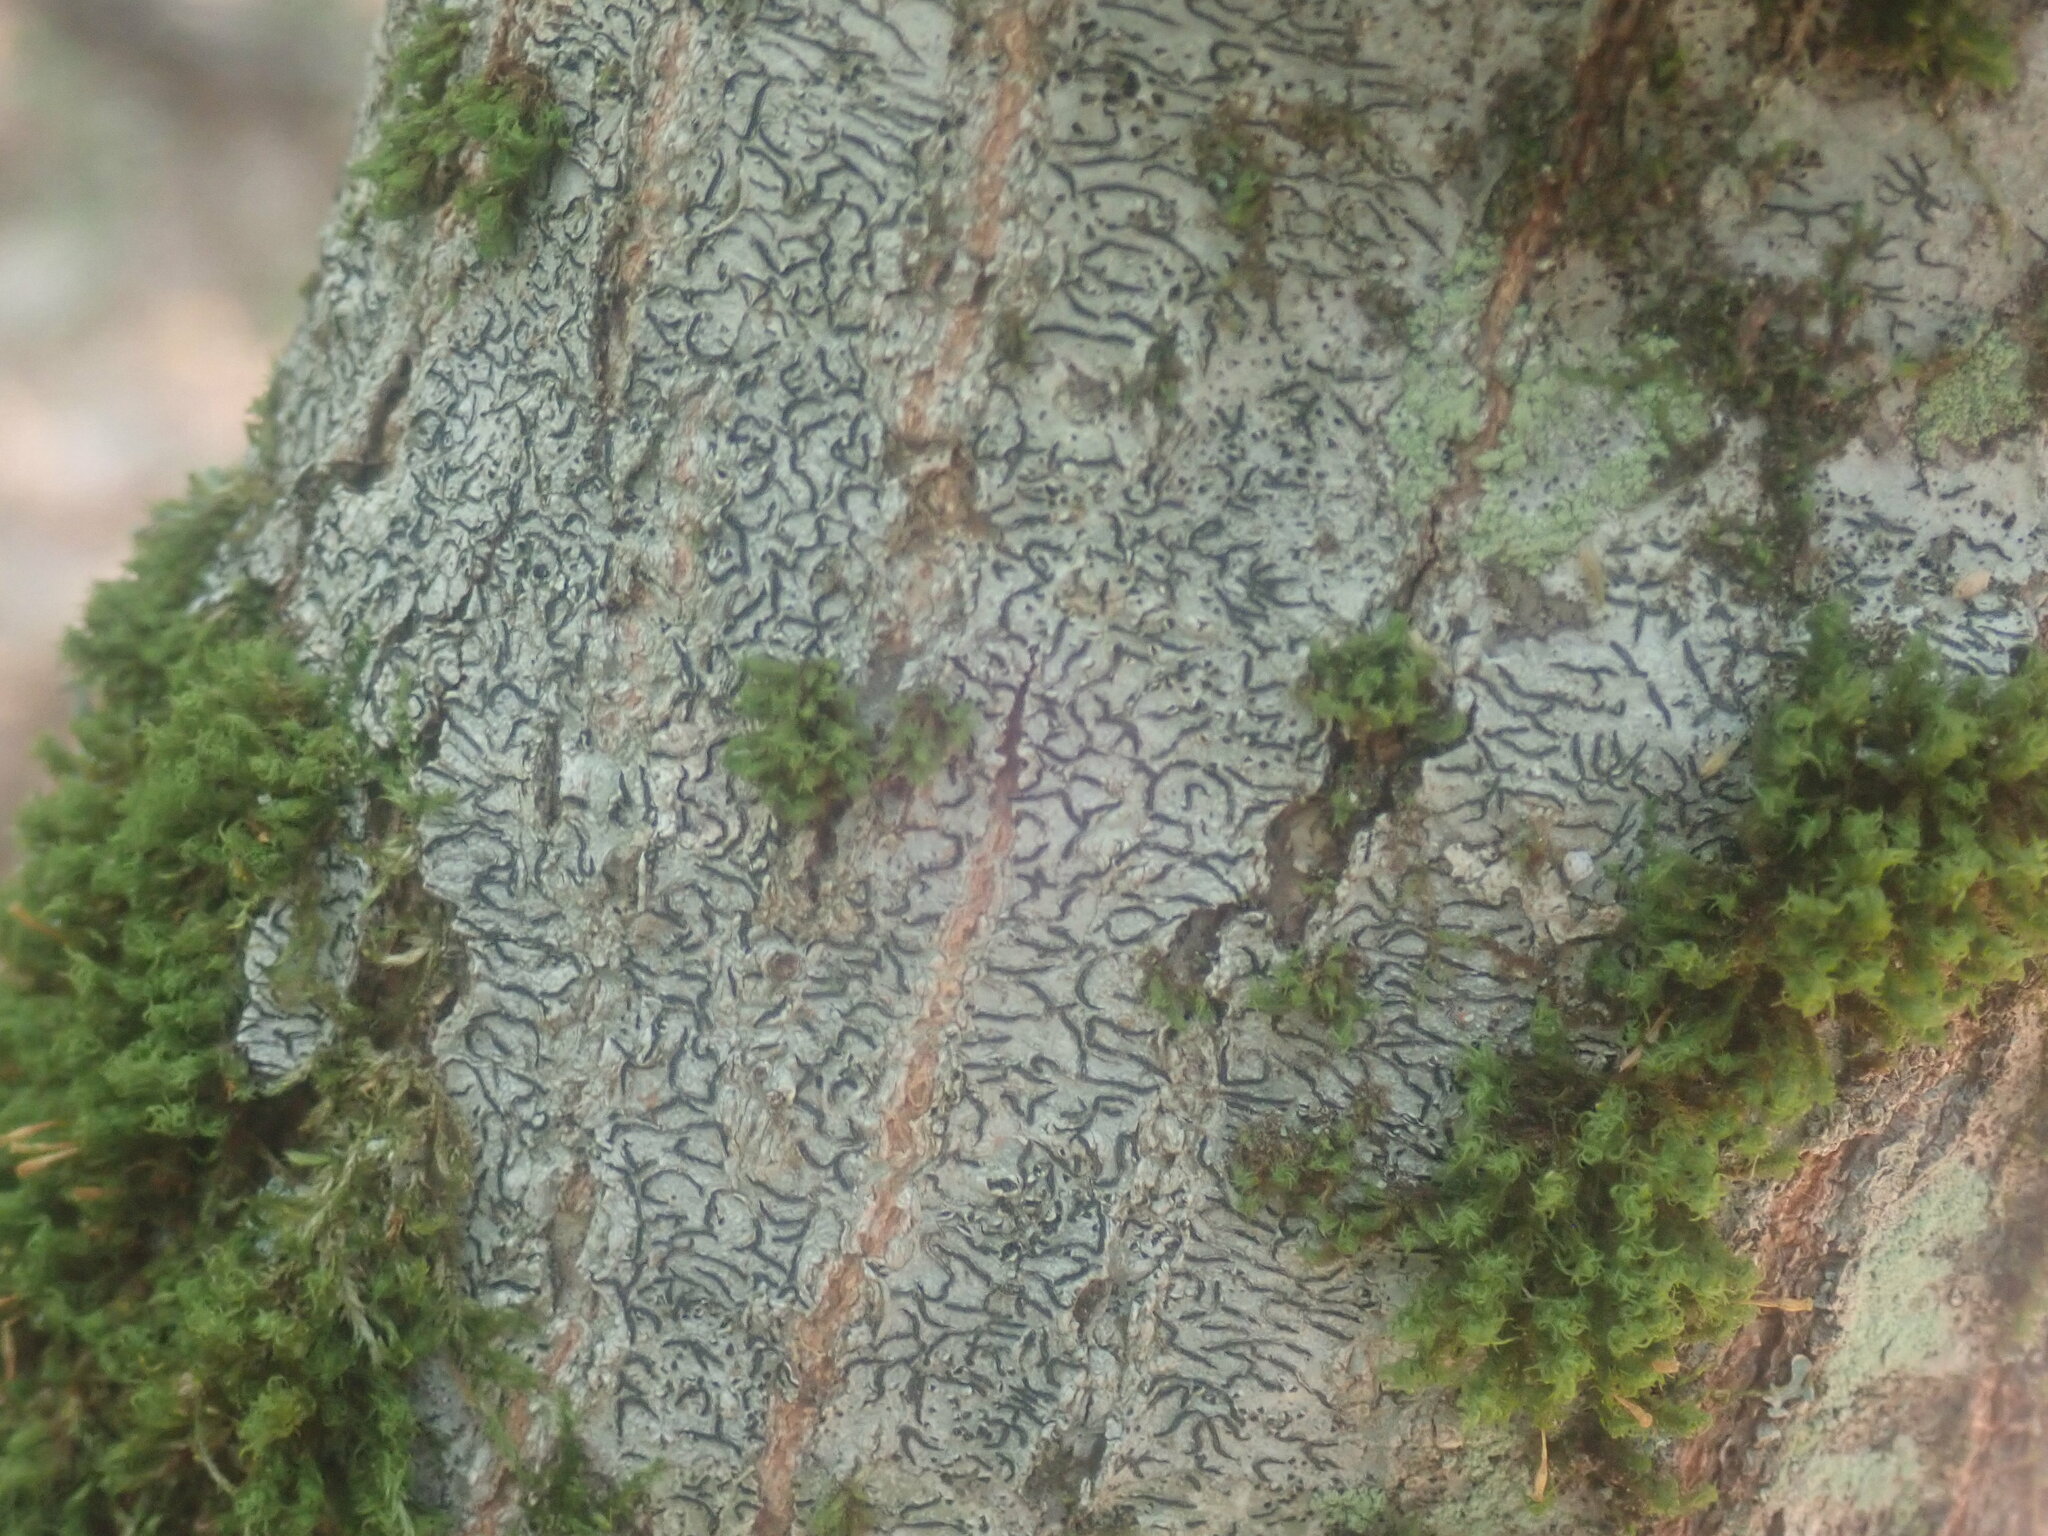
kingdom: Fungi
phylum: Ascomycota
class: Lecanoromycetes
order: Ostropales
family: Graphidaceae
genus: Graphis
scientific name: Graphis scripta
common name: Script lichen
